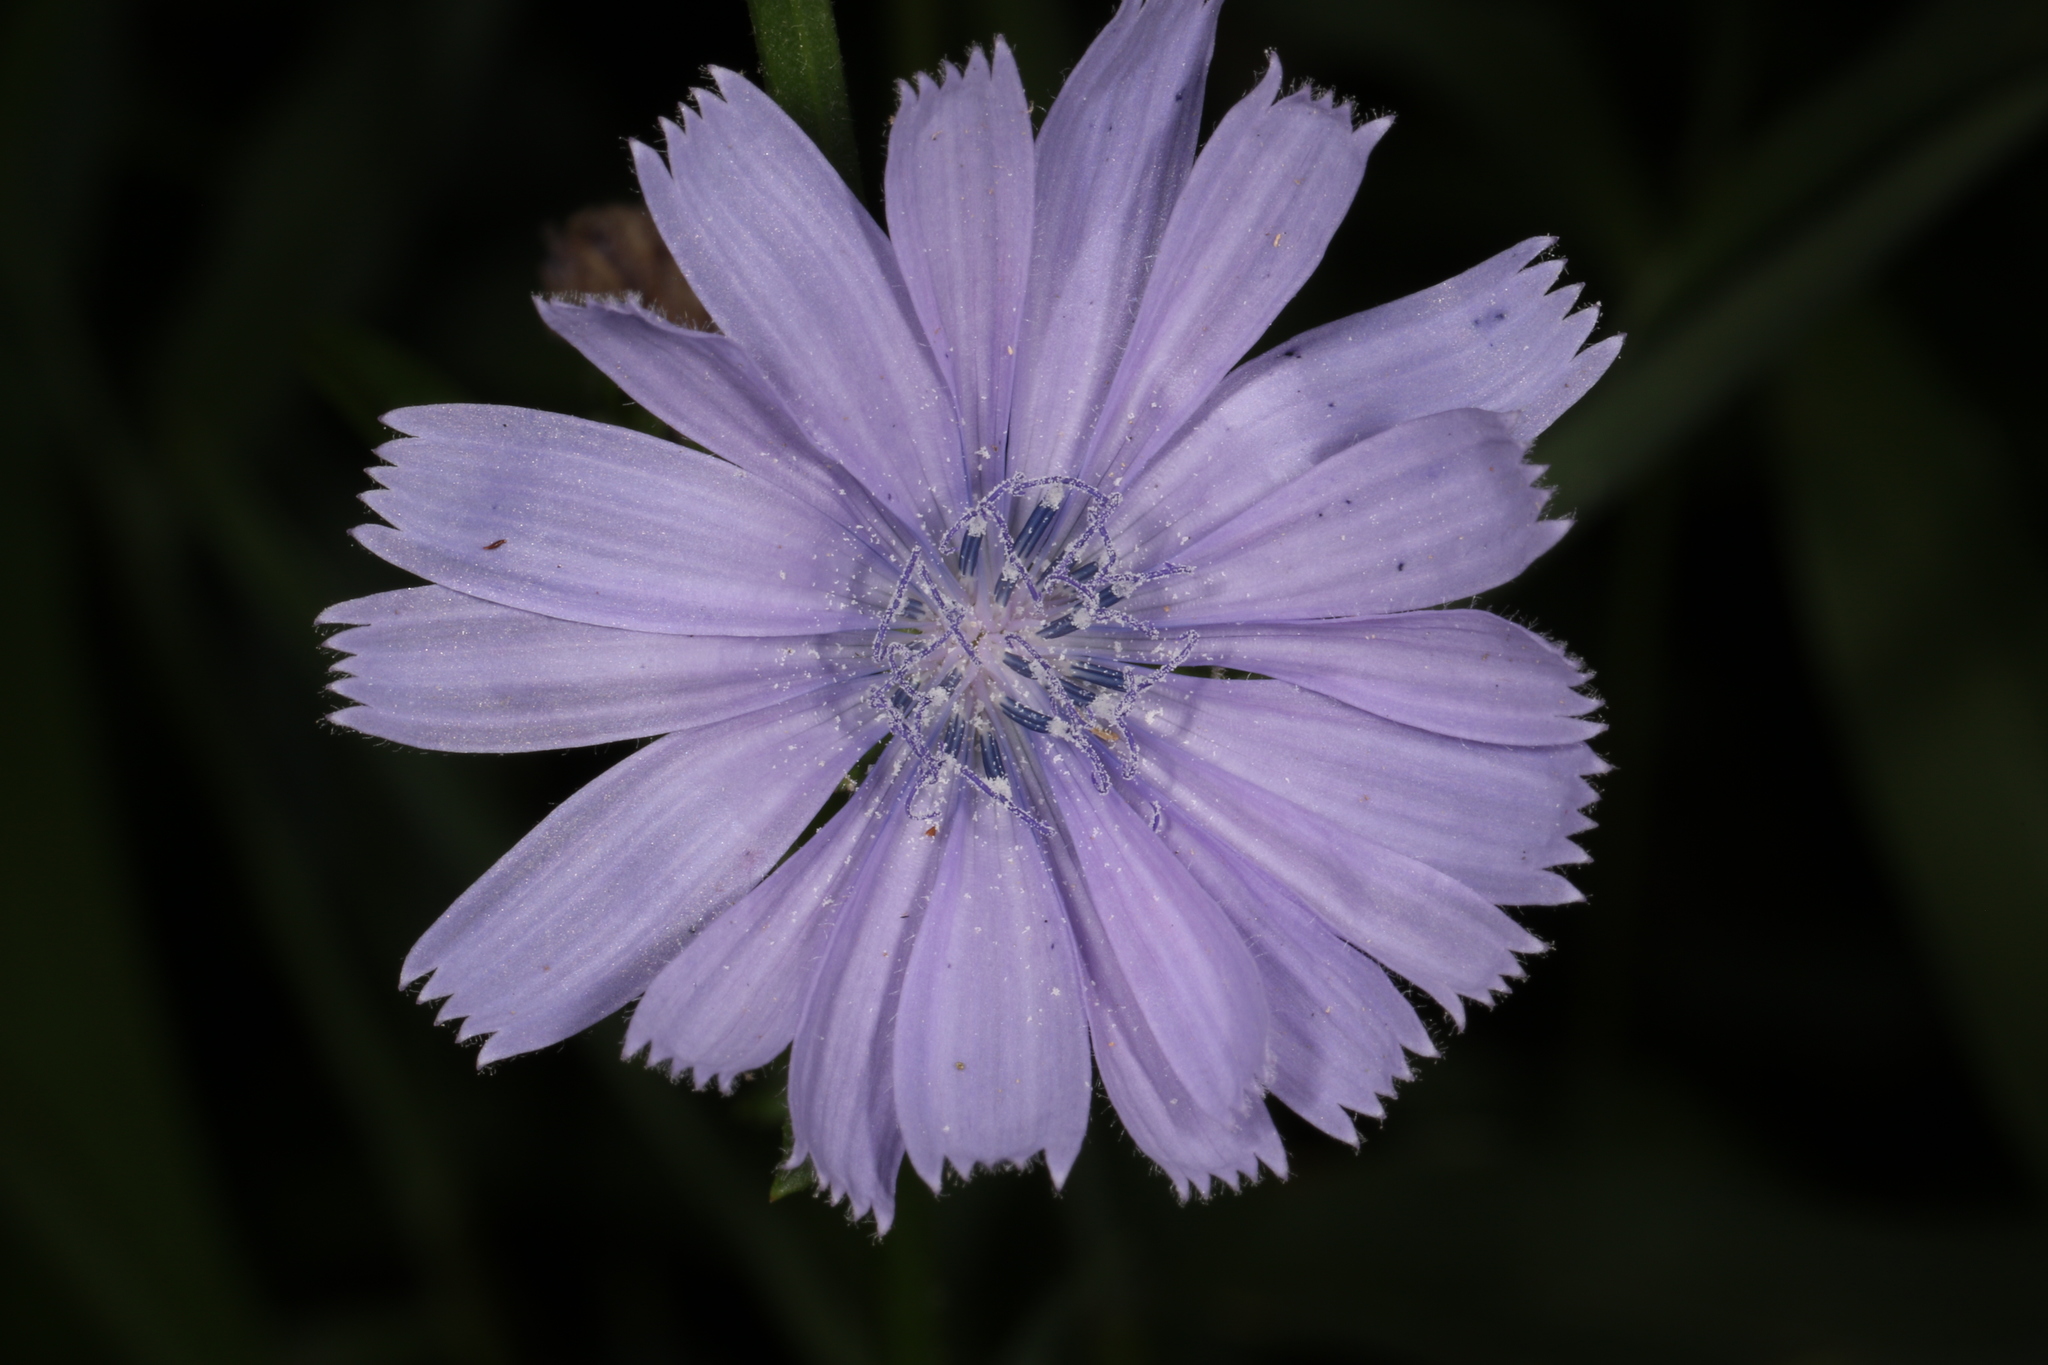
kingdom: Plantae
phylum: Tracheophyta
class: Magnoliopsida
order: Asterales
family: Asteraceae
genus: Cichorium
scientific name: Cichorium intybus
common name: Chicory
